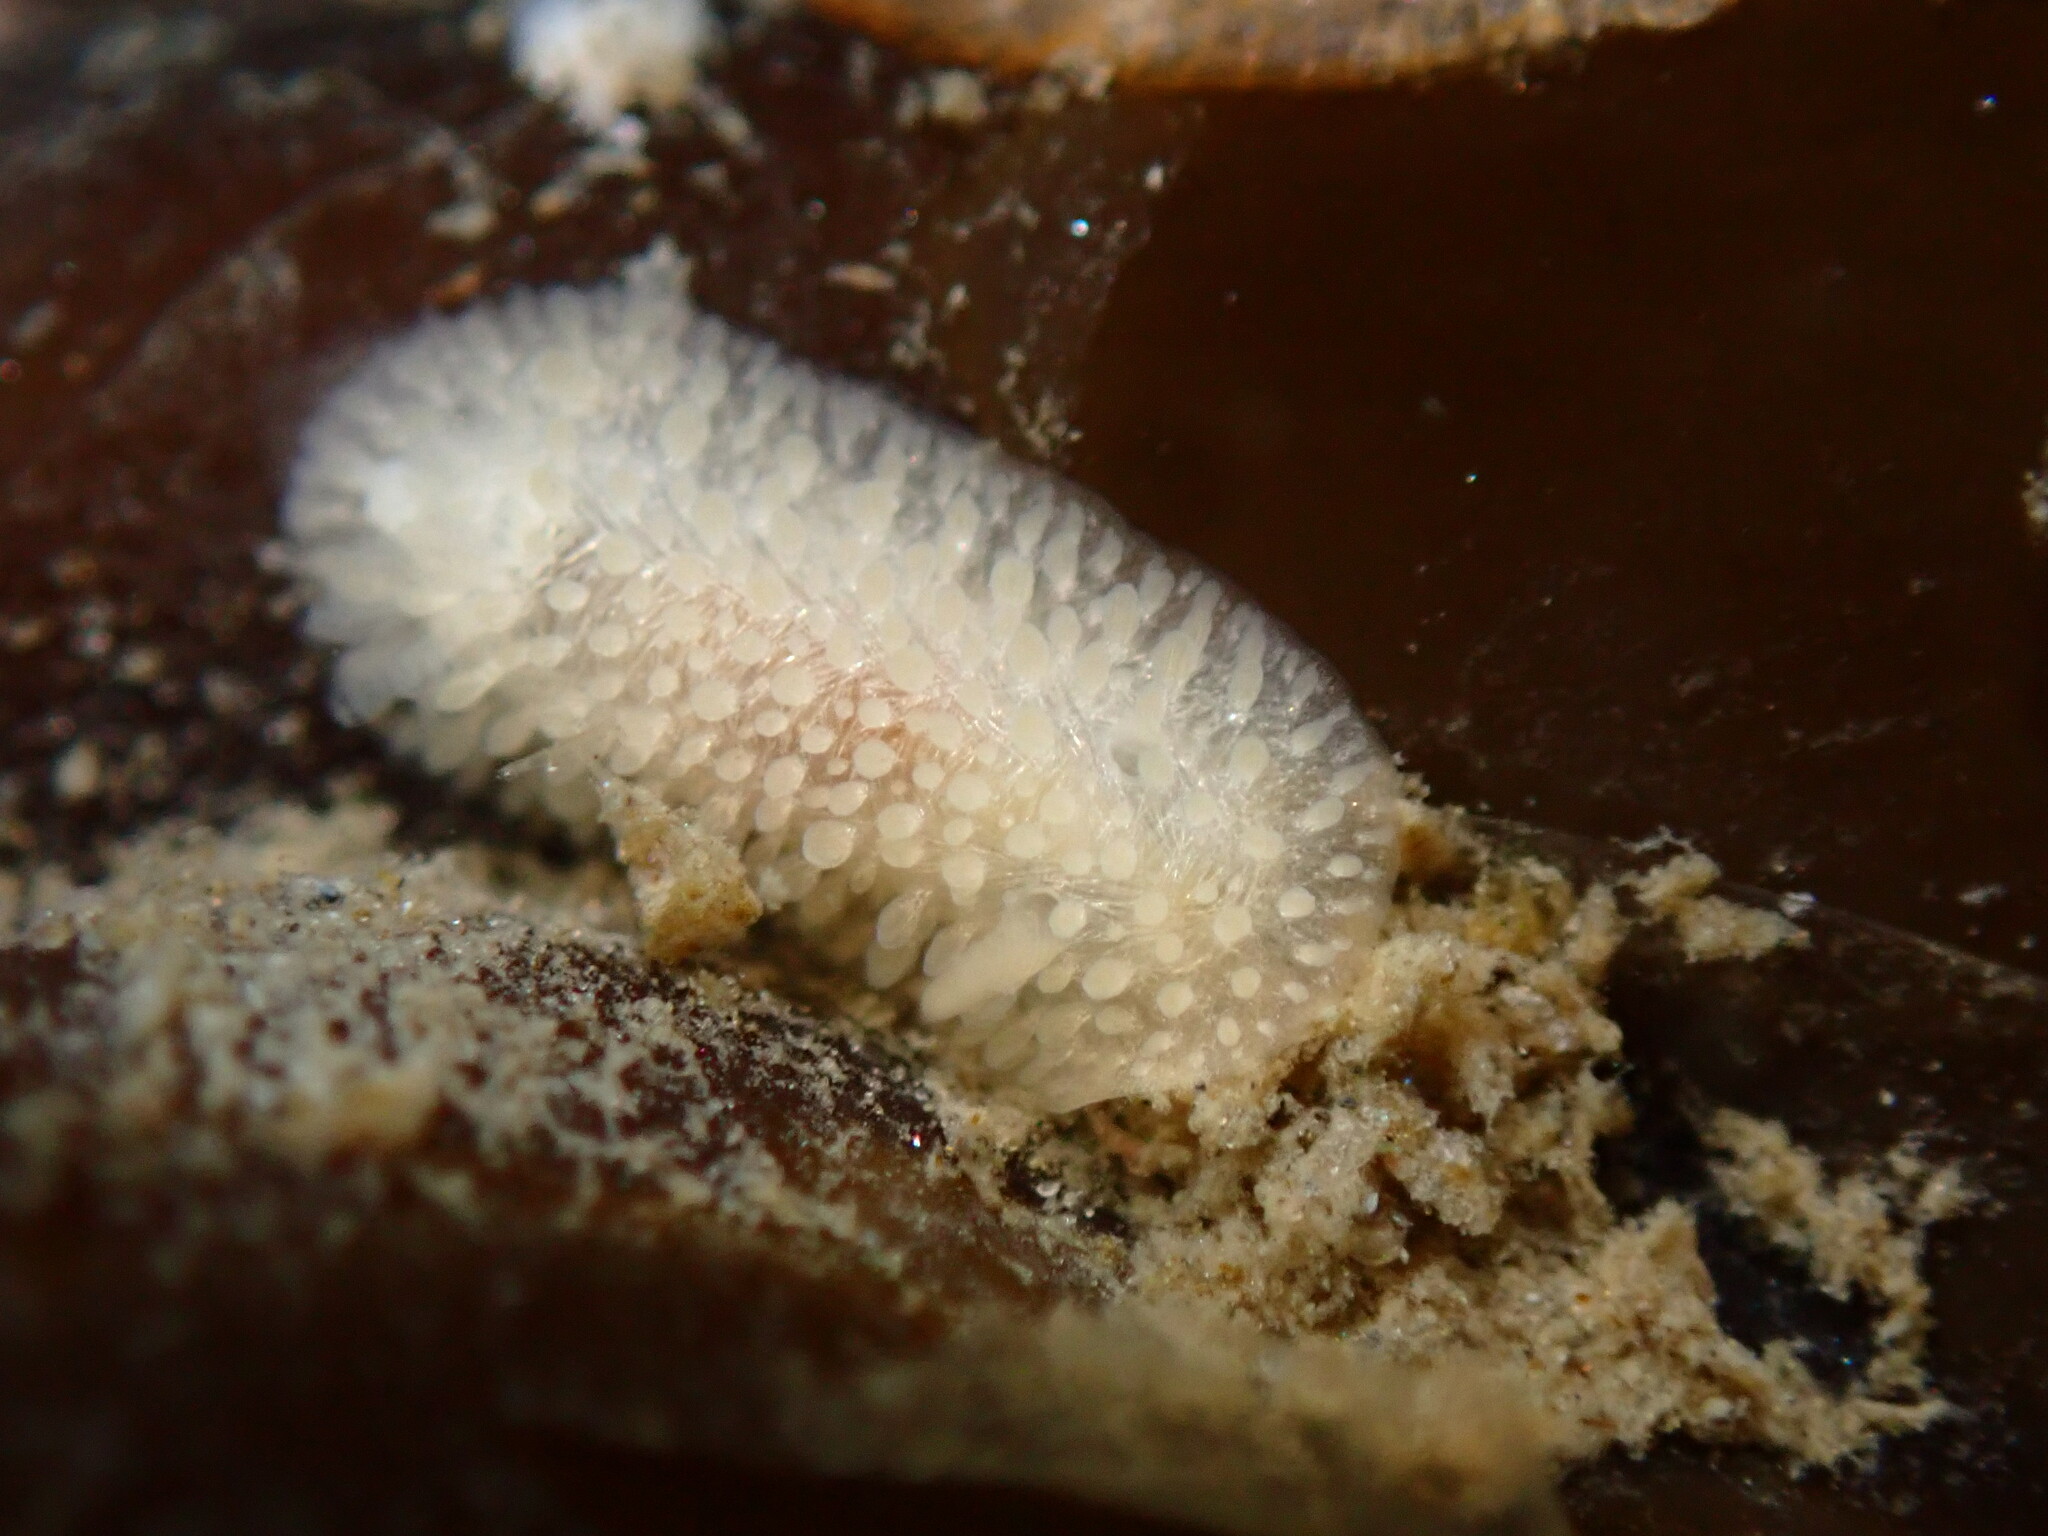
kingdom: Animalia
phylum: Mollusca
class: Gastropoda
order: Nudibranchia
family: Onchidorididae
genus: Atalodoris
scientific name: Atalodoris jannae
